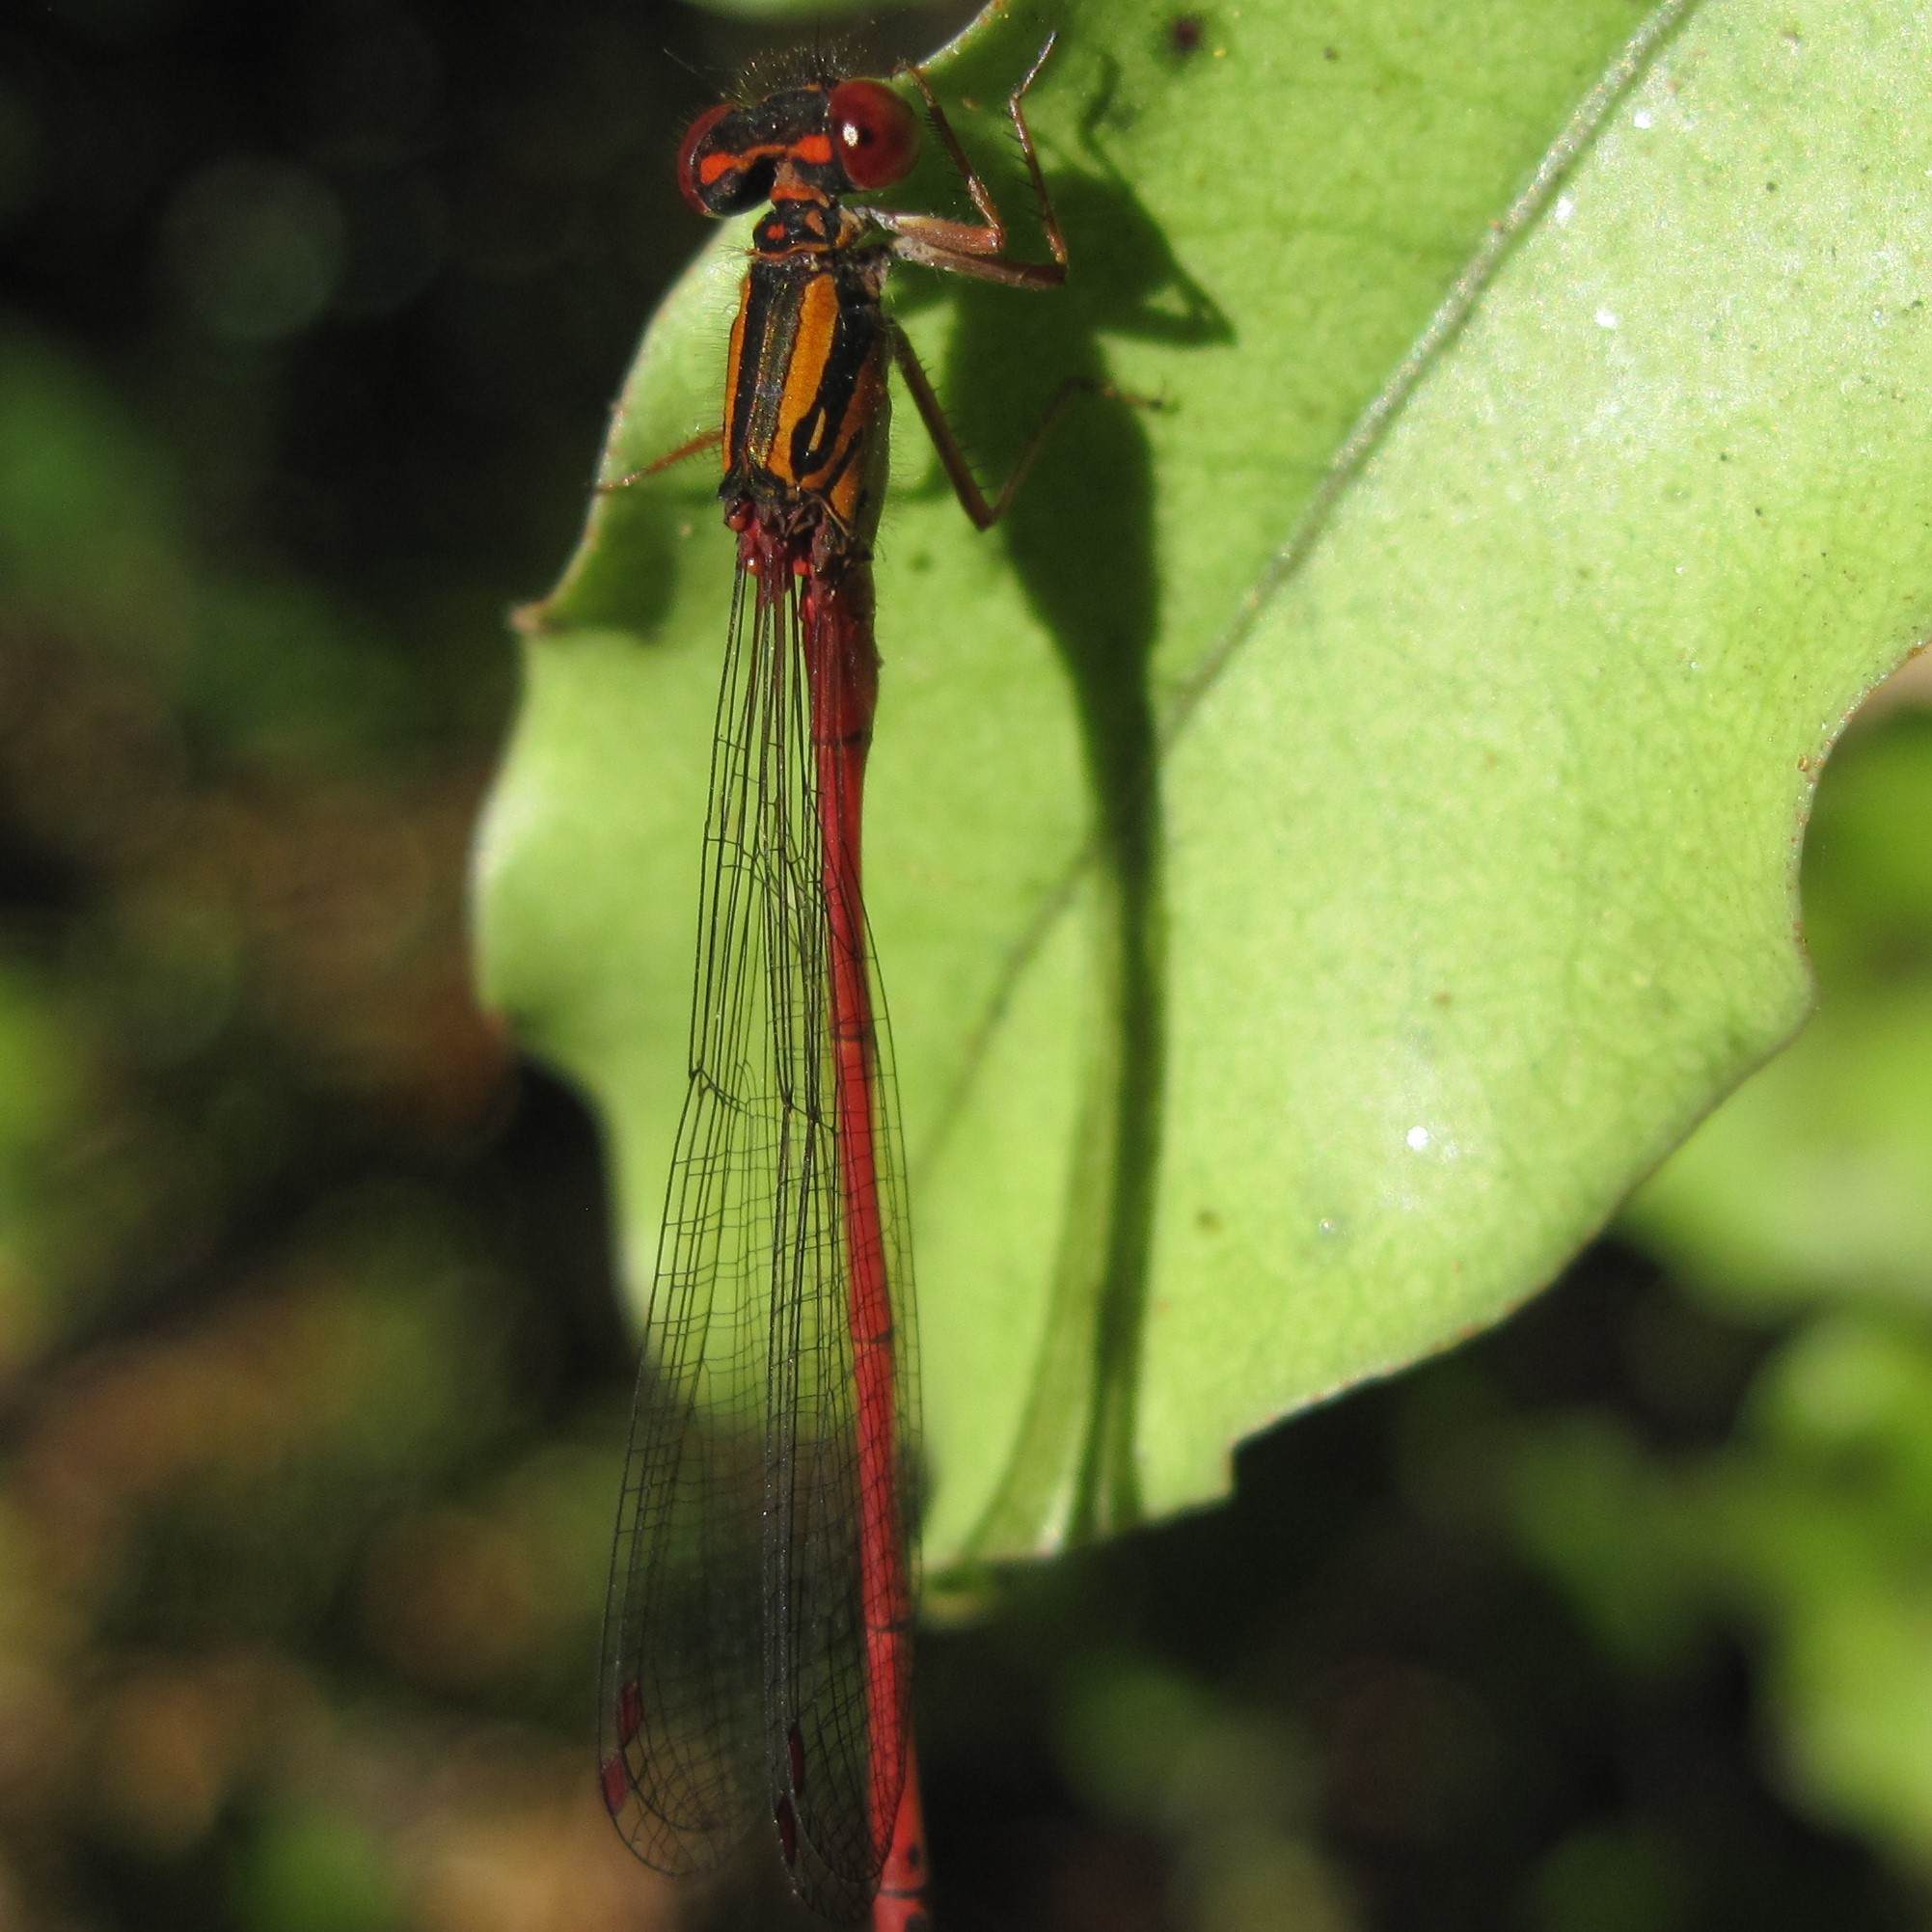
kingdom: Animalia
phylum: Arthropoda
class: Insecta
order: Odonata
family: Coenagrionidae
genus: Xanthocnemis
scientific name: Xanthocnemis zealandica
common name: Common redcoat damselfly
